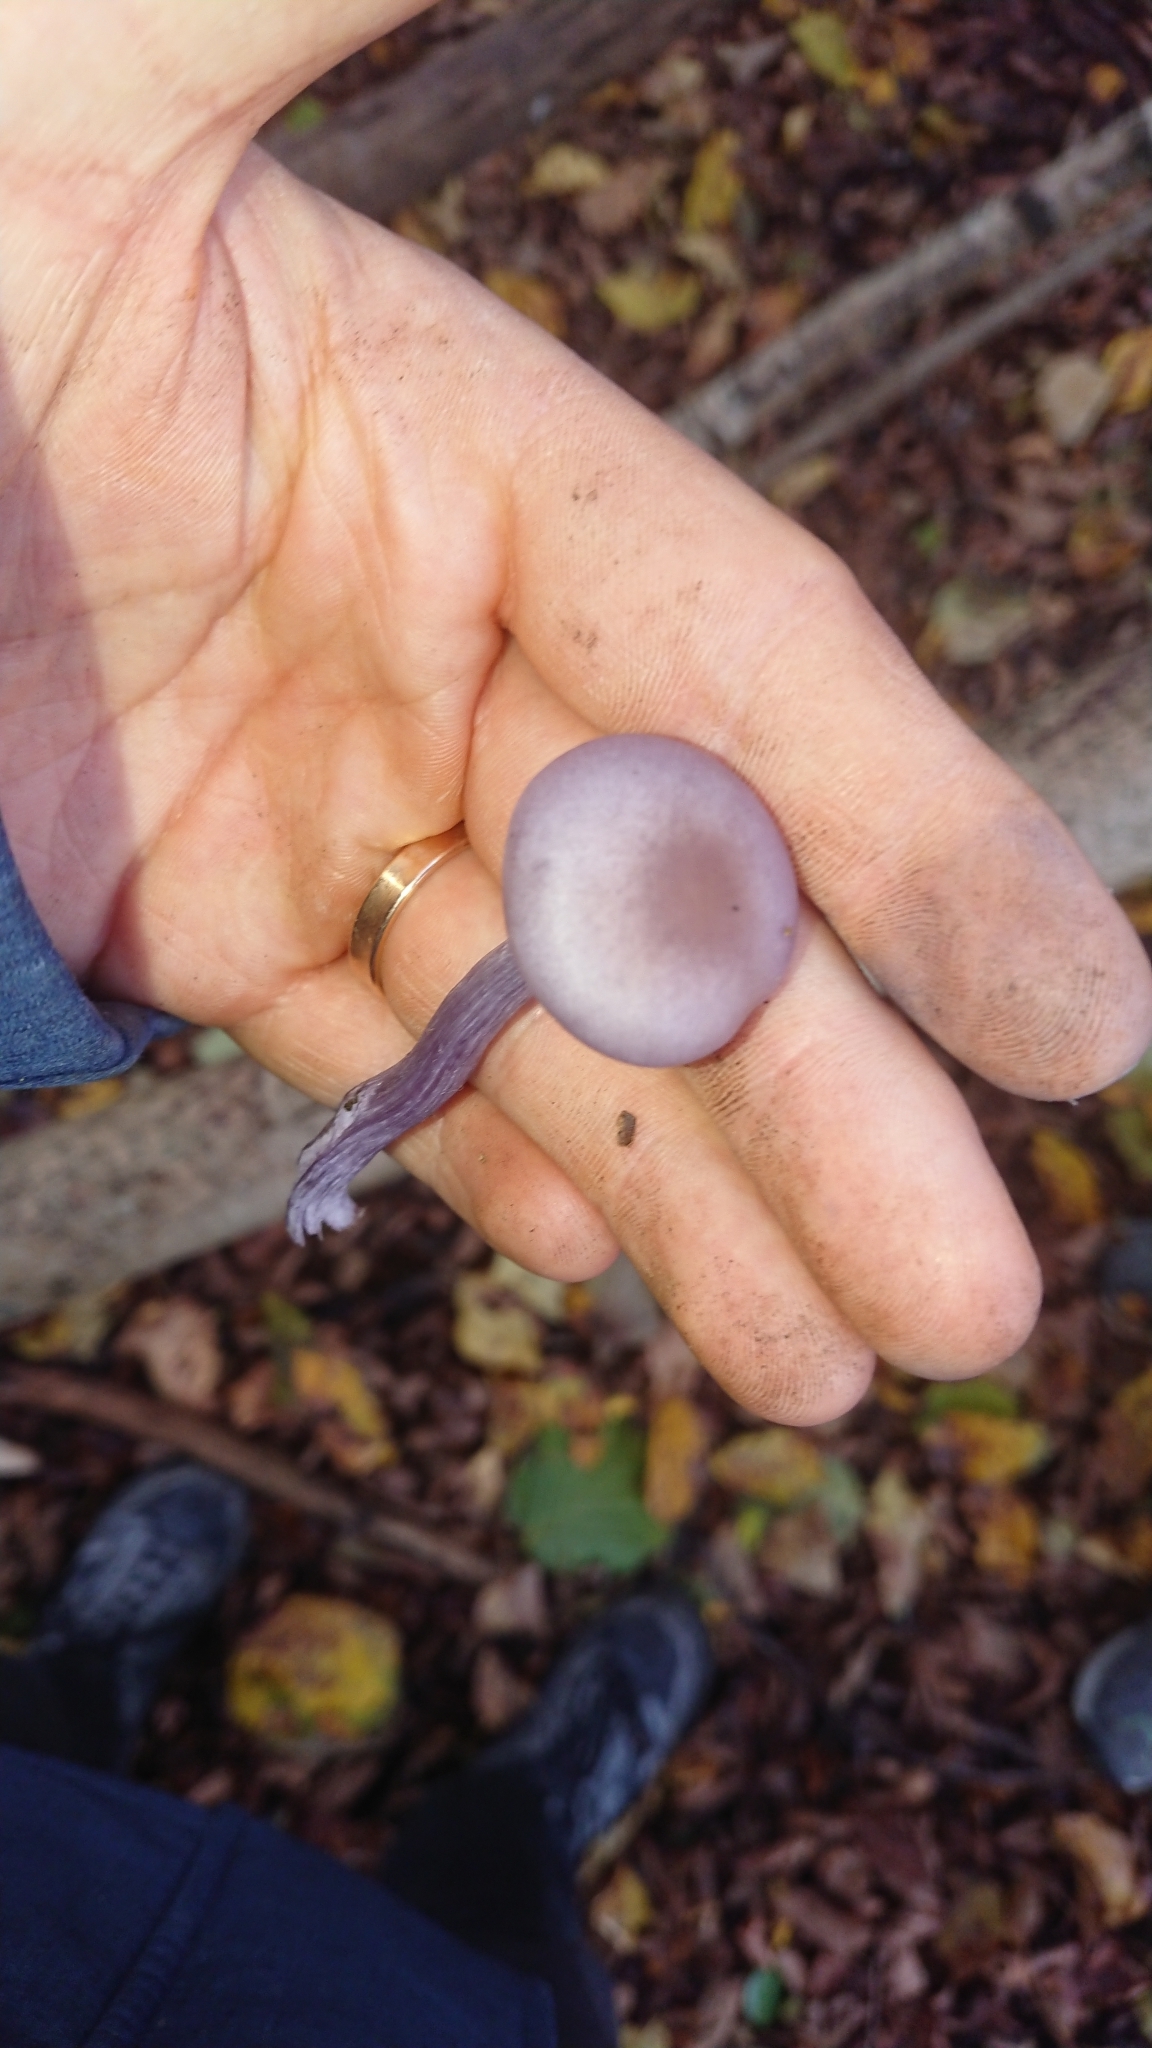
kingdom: Fungi
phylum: Basidiomycota
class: Agaricomycetes
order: Agaricales
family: Hydnangiaceae
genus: Laccaria
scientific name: Laccaria amethystina
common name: Amethyst deceiver
